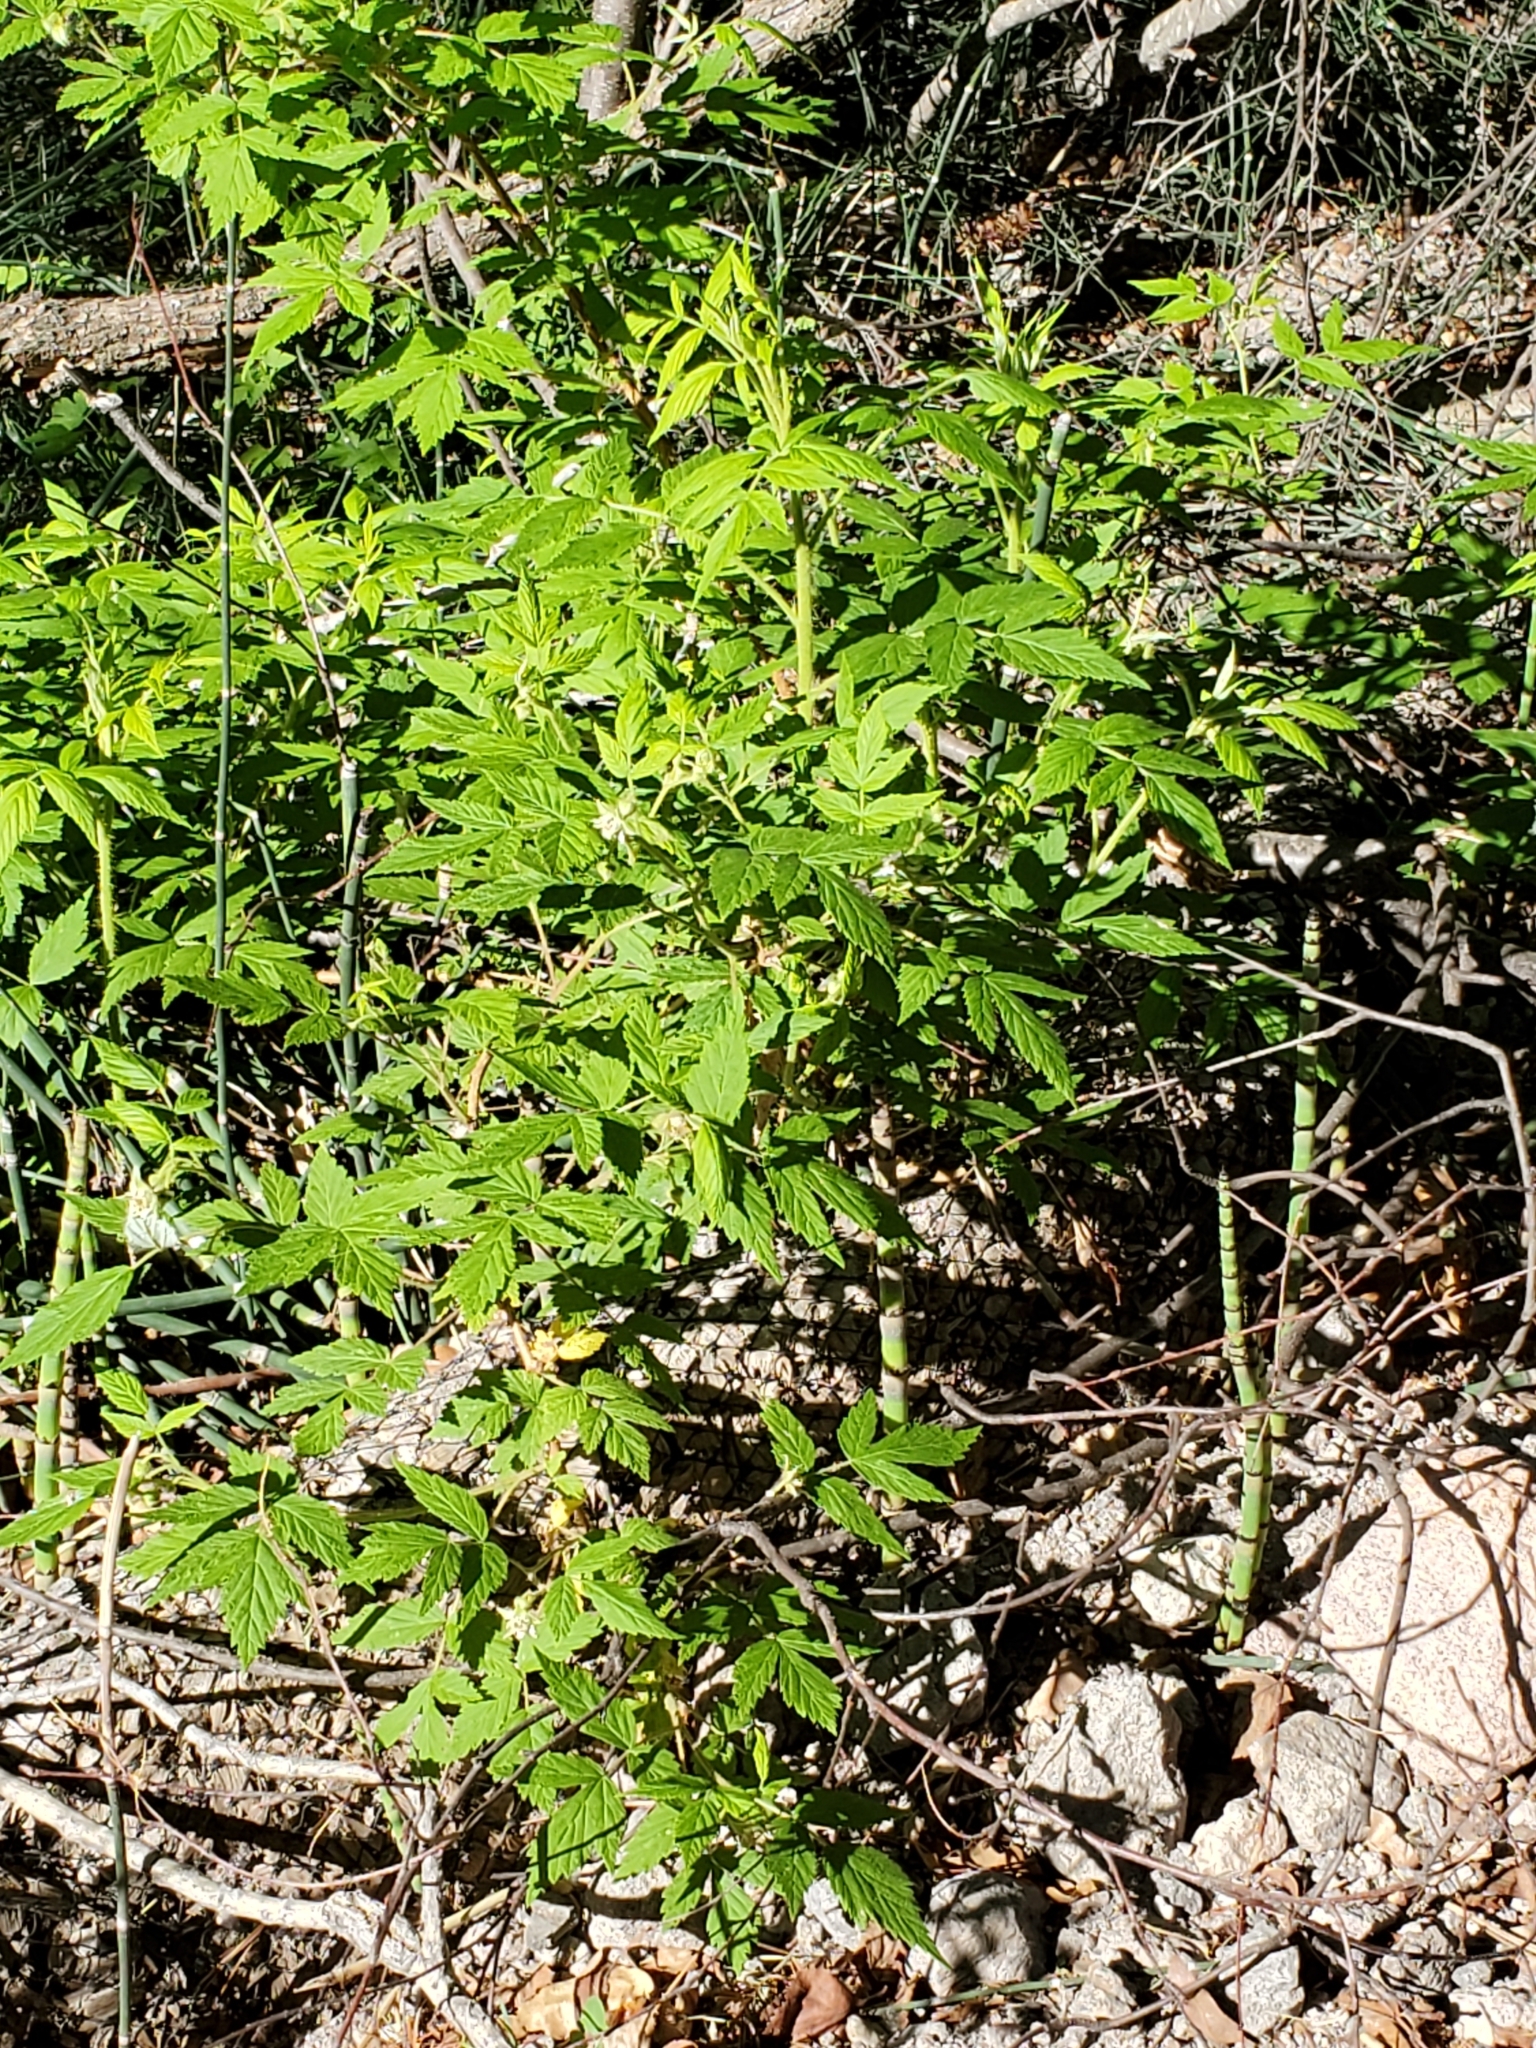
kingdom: Plantae
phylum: Tracheophyta
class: Magnoliopsida
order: Rosales
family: Rosaceae
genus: Rubus
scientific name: Rubus idaeus
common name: Raspberry
